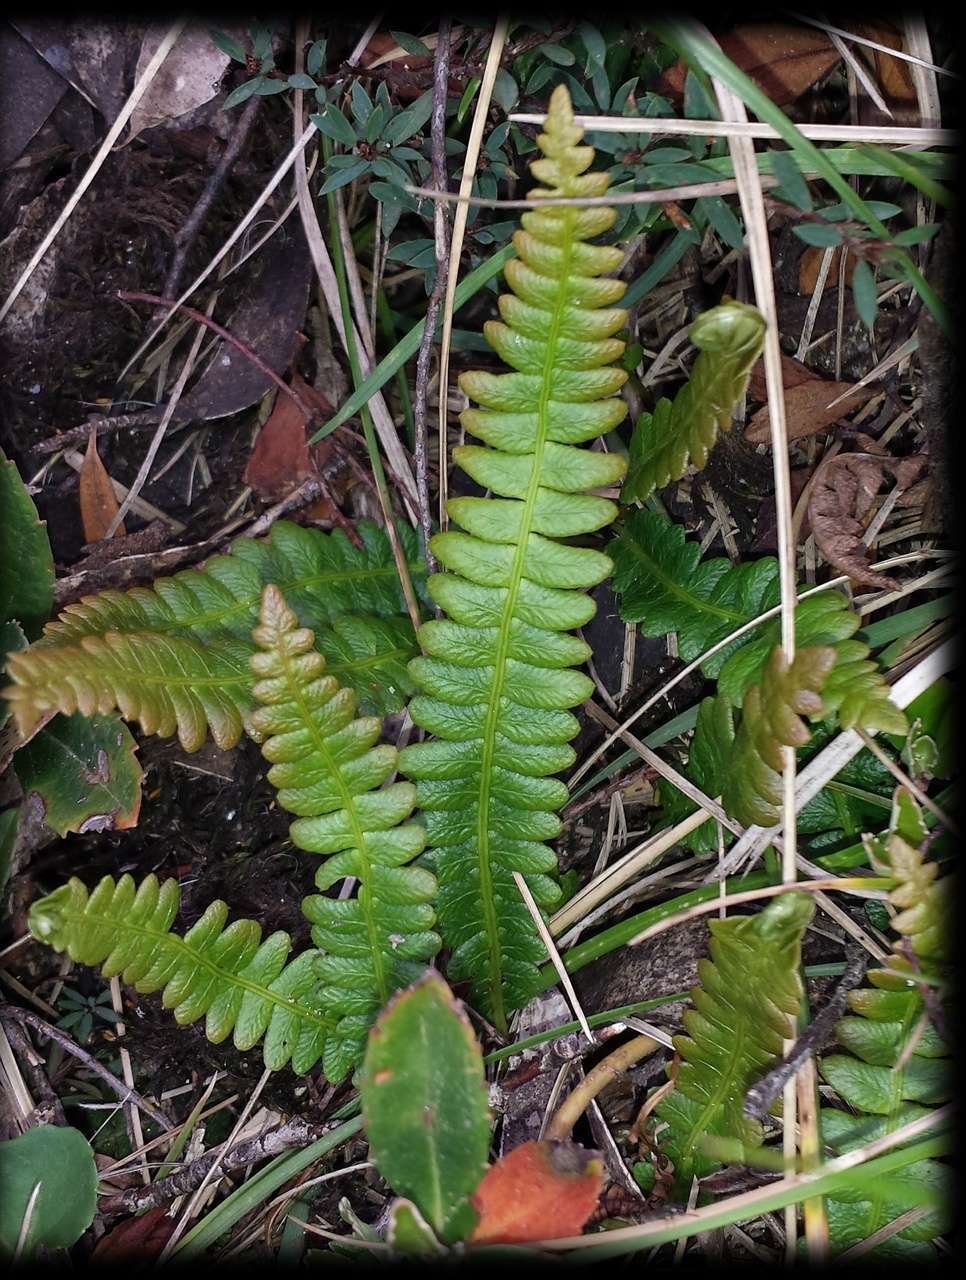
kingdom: Plantae
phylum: Tracheophyta
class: Polypodiopsida
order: Polypodiales
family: Blechnaceae
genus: Austroblechnum
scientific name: Austroblechnum penna-marina
